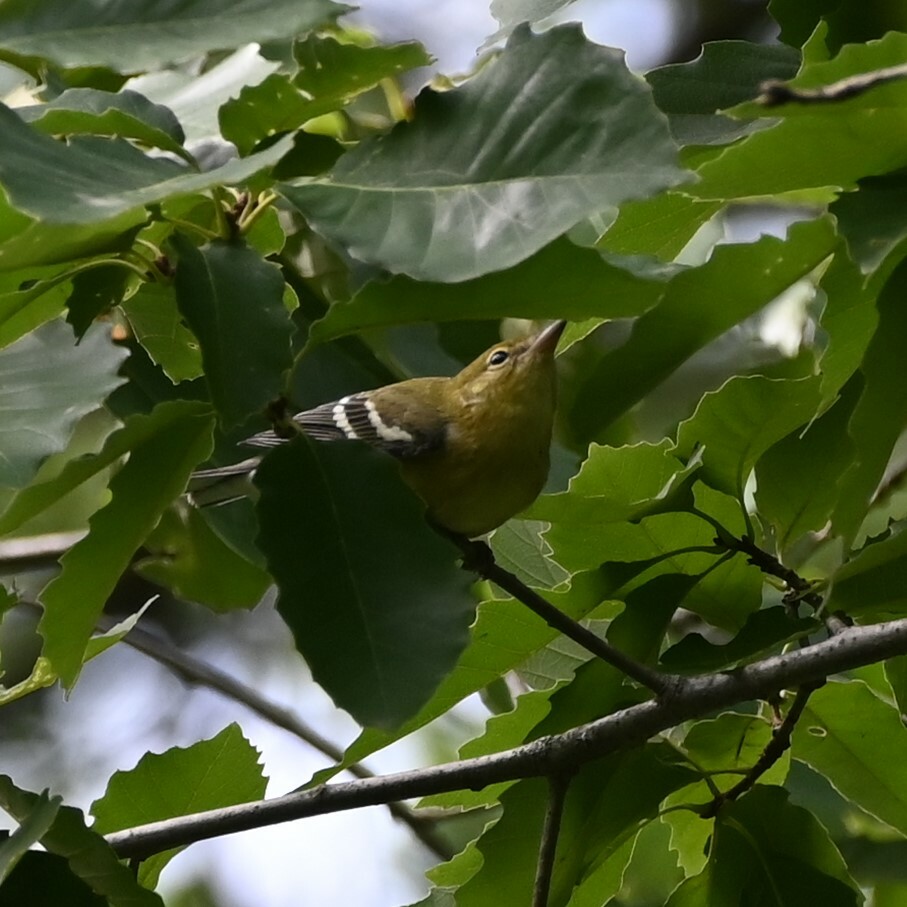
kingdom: Animalia
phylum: Chordata
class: Aves
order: Passeriformes
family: Parulidae
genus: Setophaga
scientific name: Setophaga castanea
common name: Bay-breasted warbler
